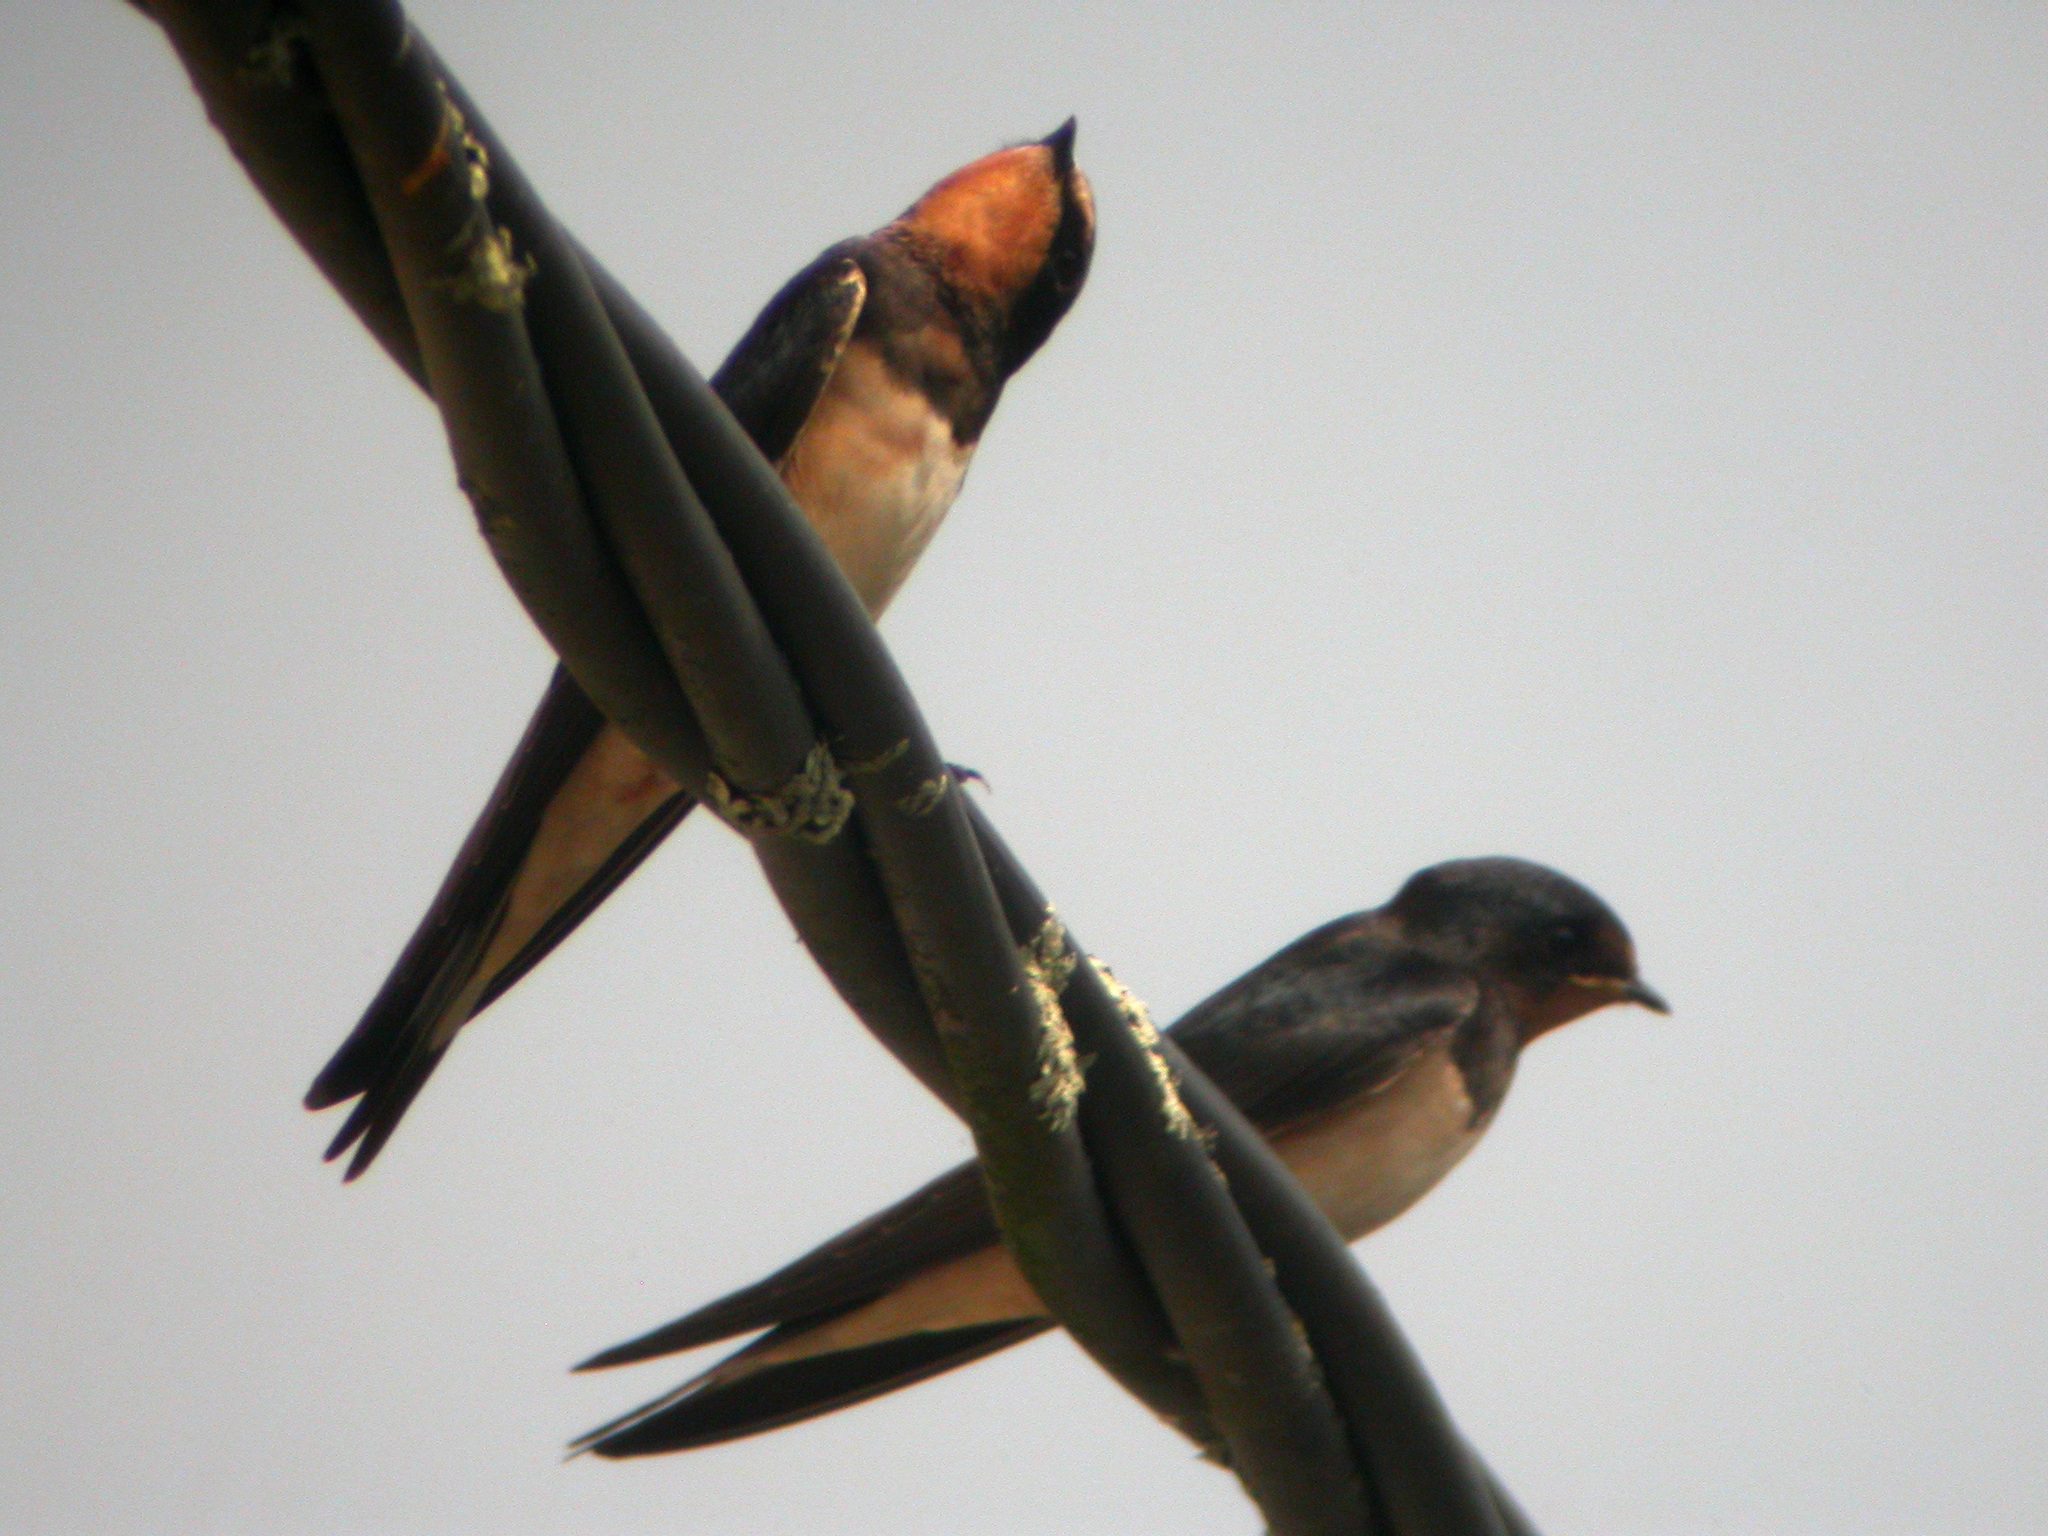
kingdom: Animalia
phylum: Chordata
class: Aves
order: Passeriformes
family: Hirundinidae
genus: Hirundo
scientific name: Hirundo rustica
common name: Barn swallow
